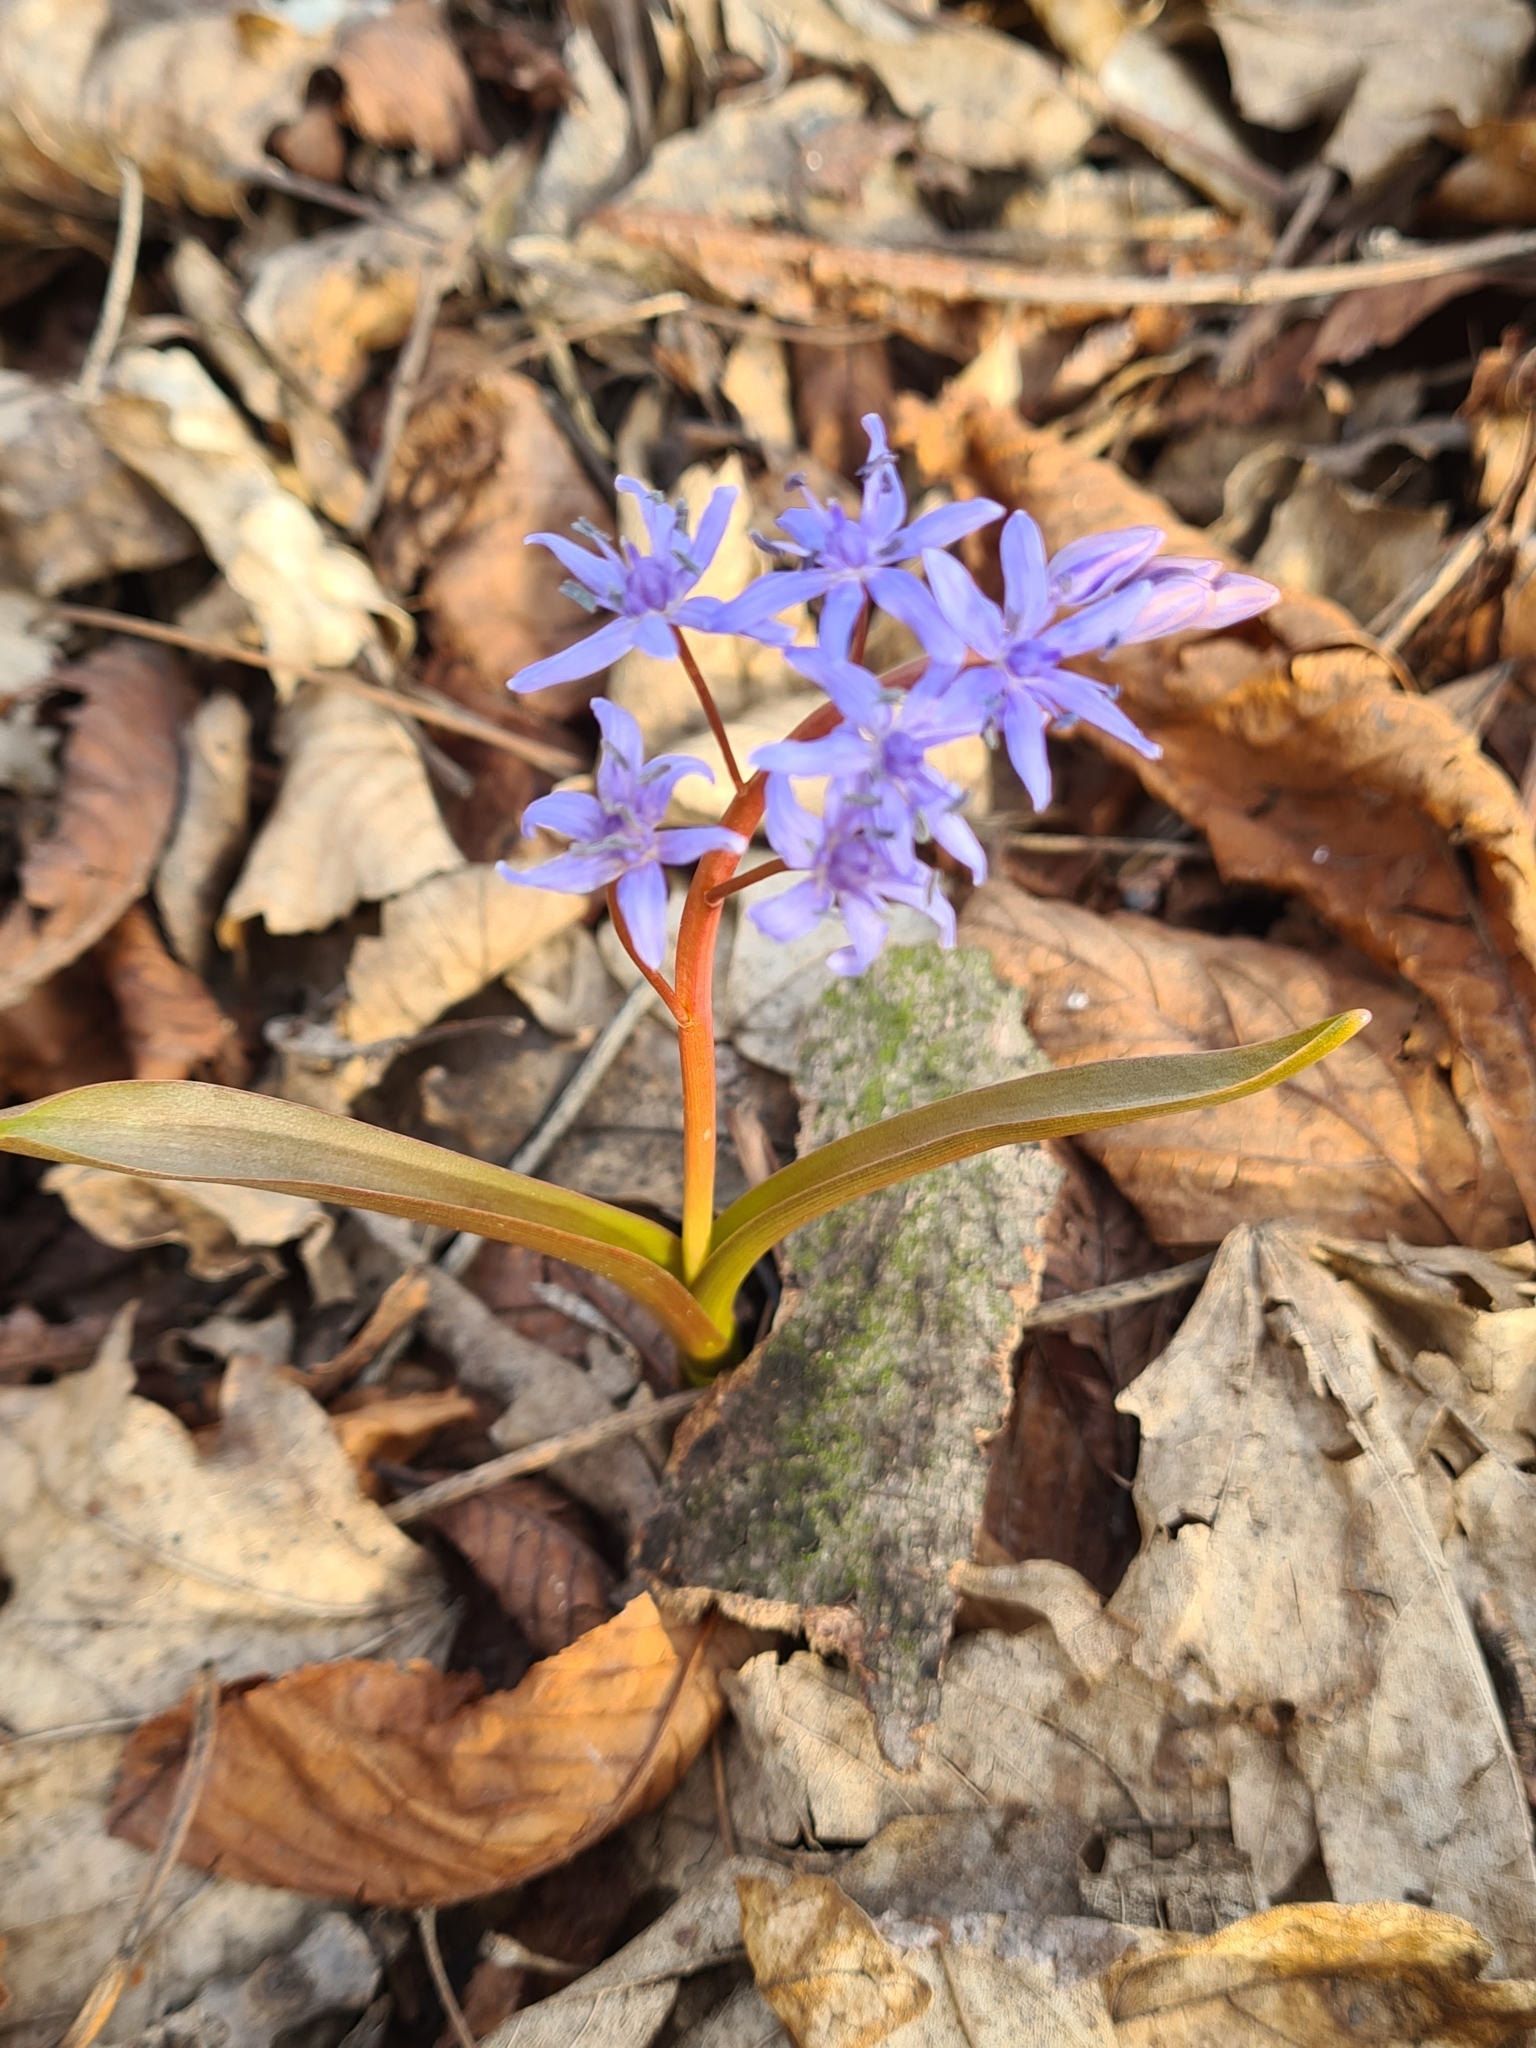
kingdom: Plantae
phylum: Tracheophyta
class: Liliopsida
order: Asparagales
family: Asparagaceae
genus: Scilla
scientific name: Scilla vindobonensis
